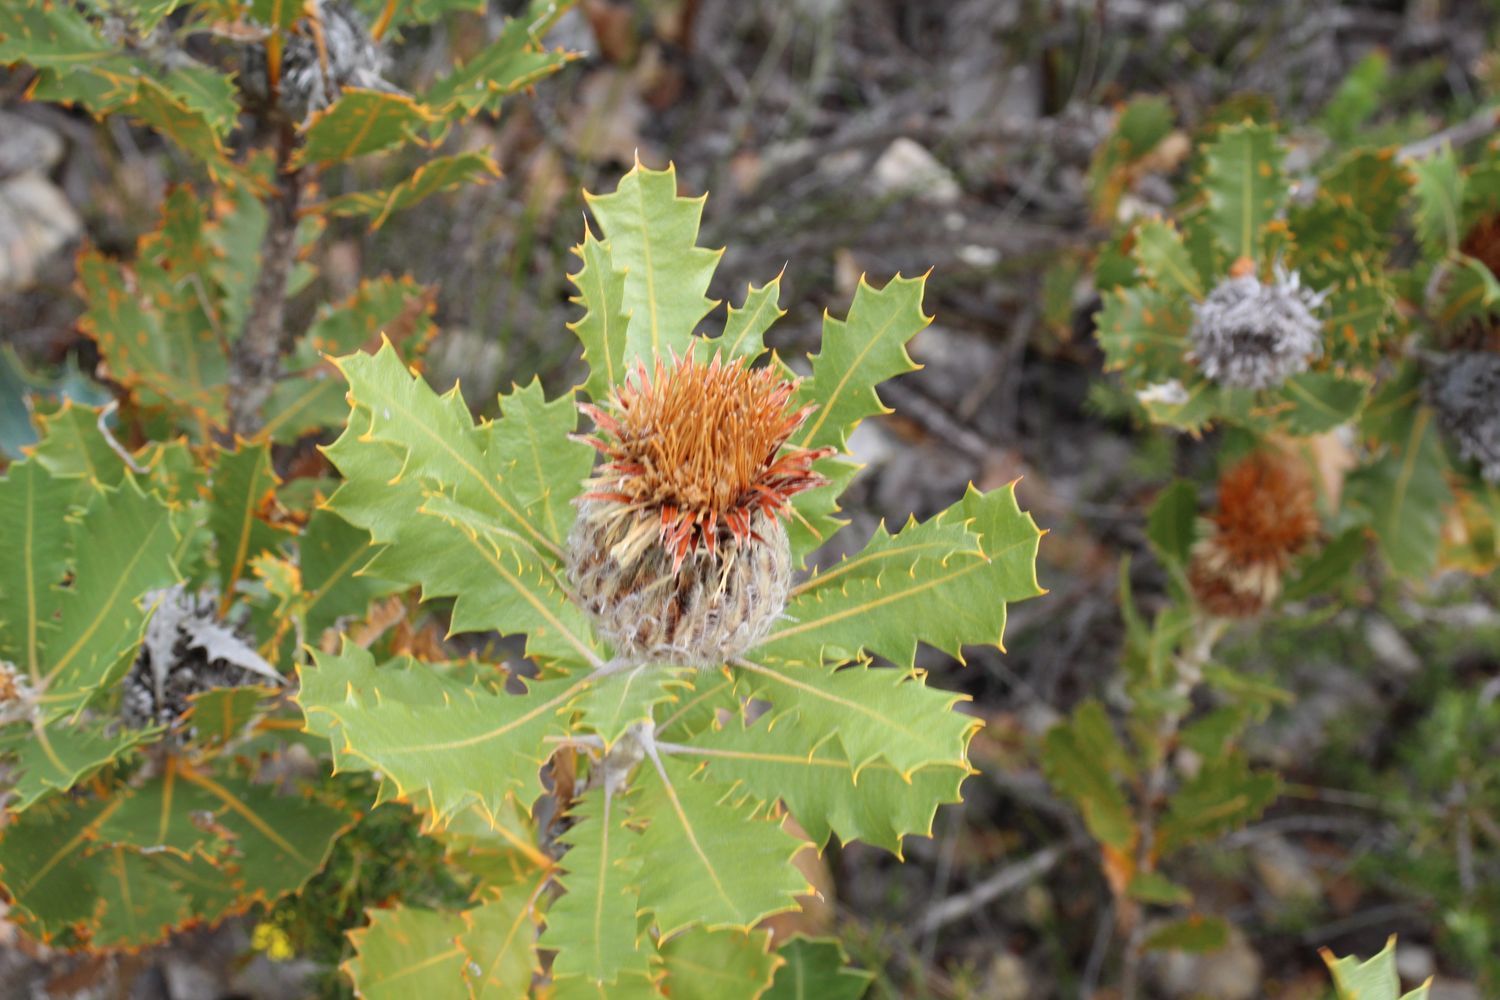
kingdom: Plantae
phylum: Tracheophyta
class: Magnoliopsida
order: Proteales
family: Proteaceae
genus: Banksia
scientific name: Banksia heliantha
